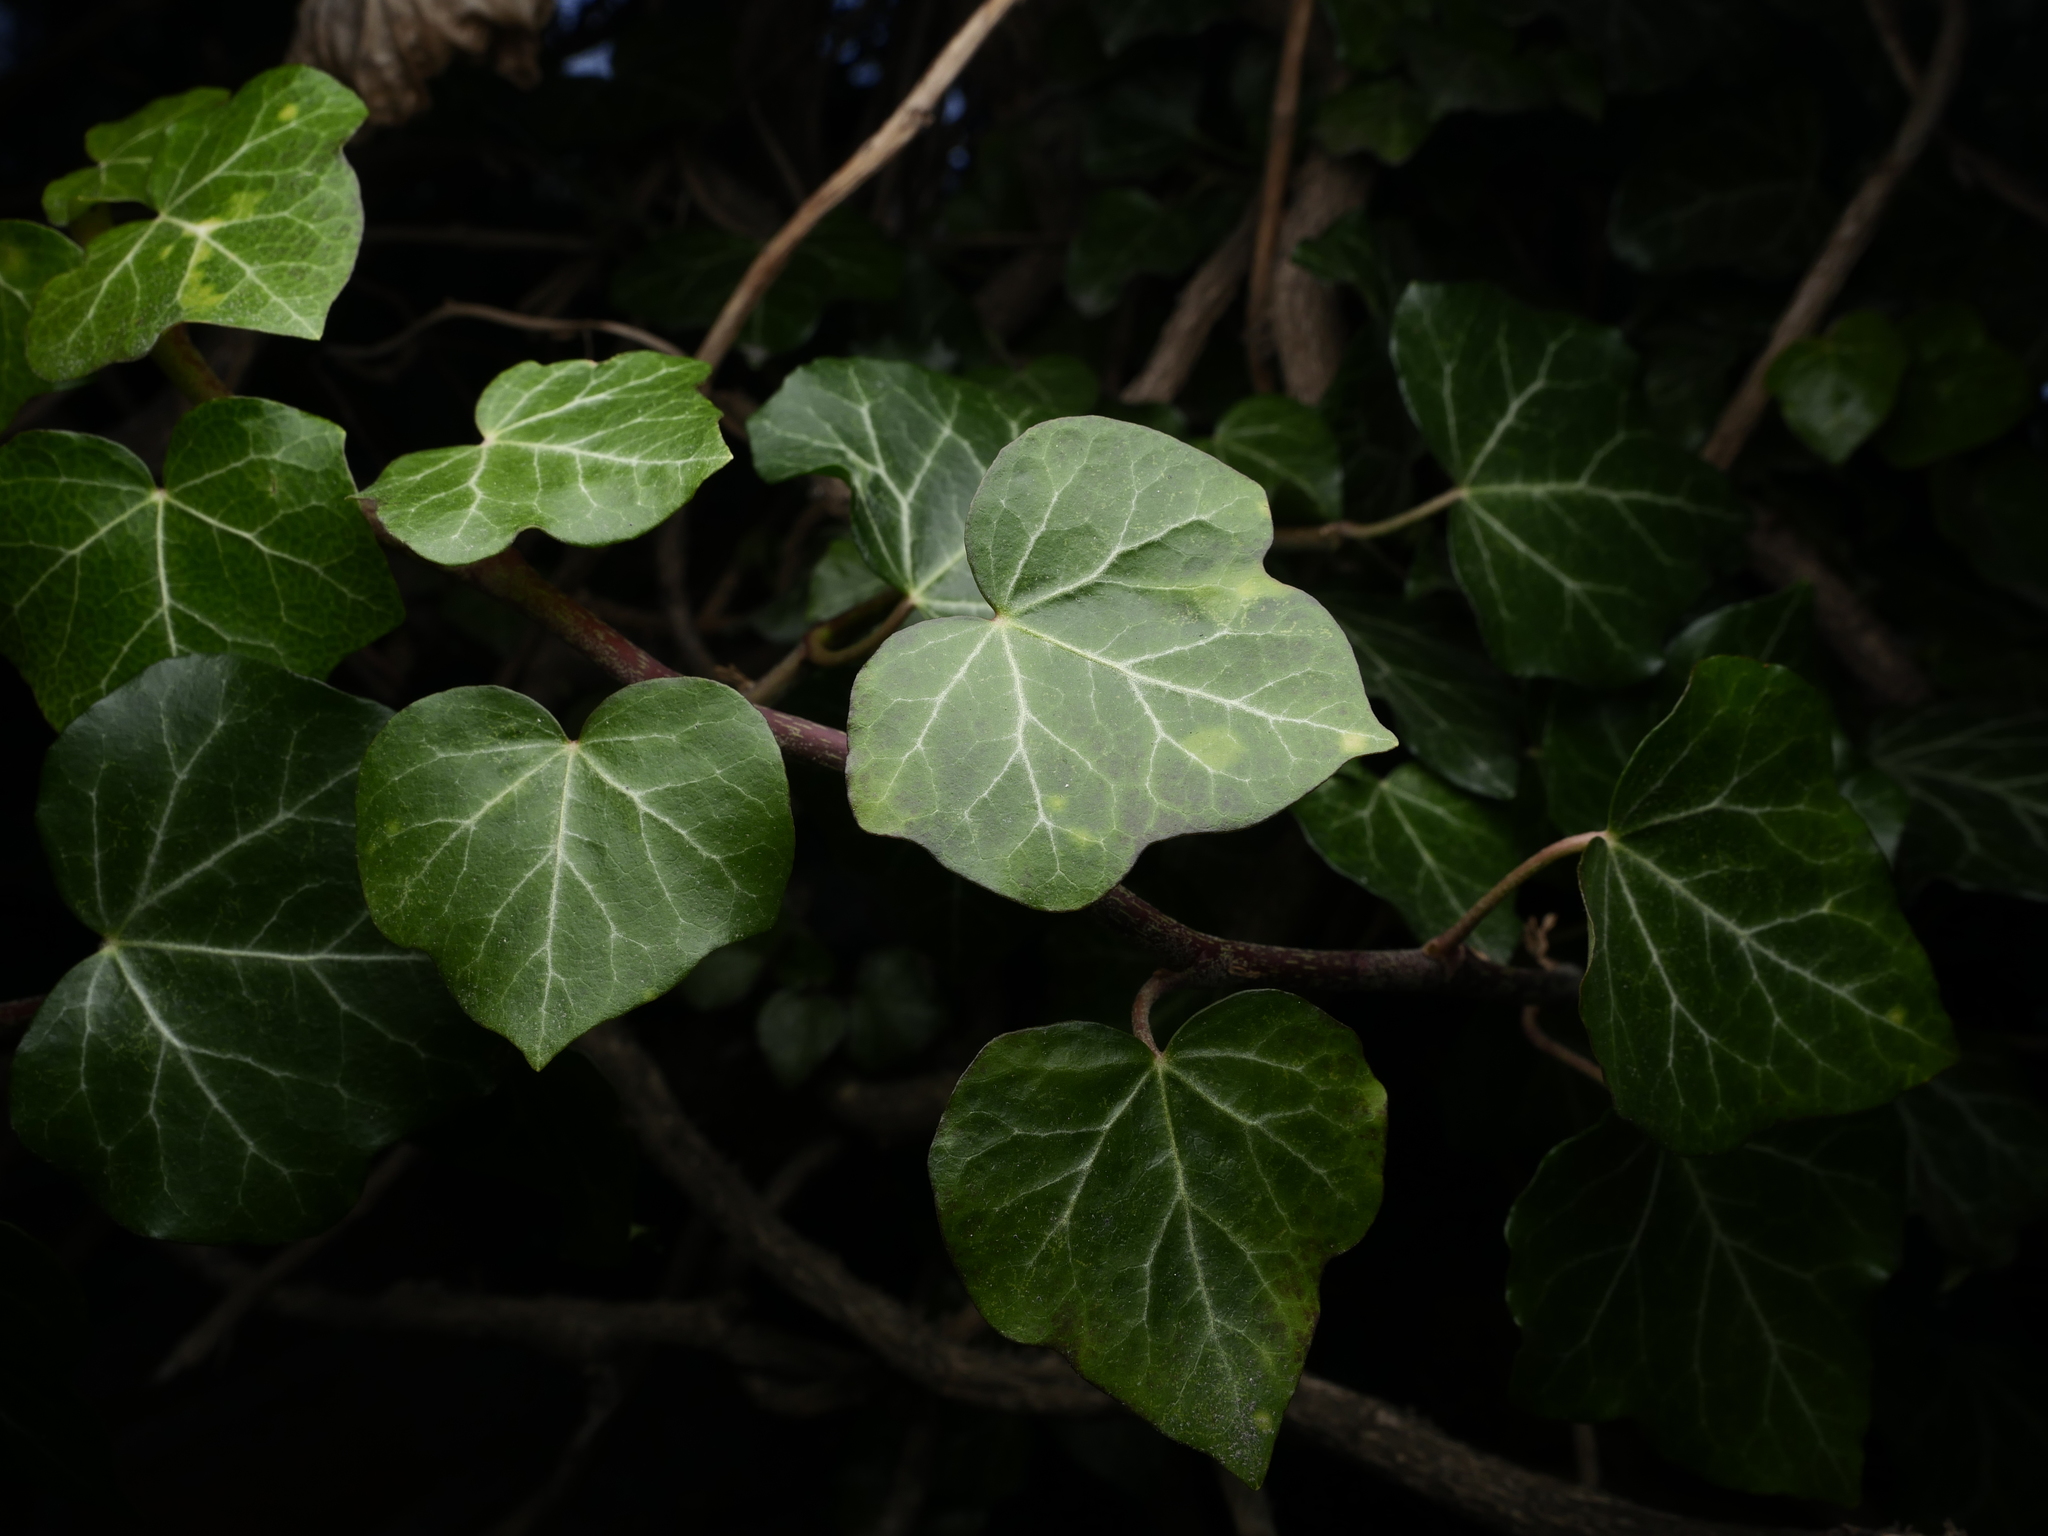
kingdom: Plantae
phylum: Tracheophyta
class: Magnoliopsida
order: Apiales
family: Araliaceae
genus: Hedera
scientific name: Hedera helix
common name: Ivy
